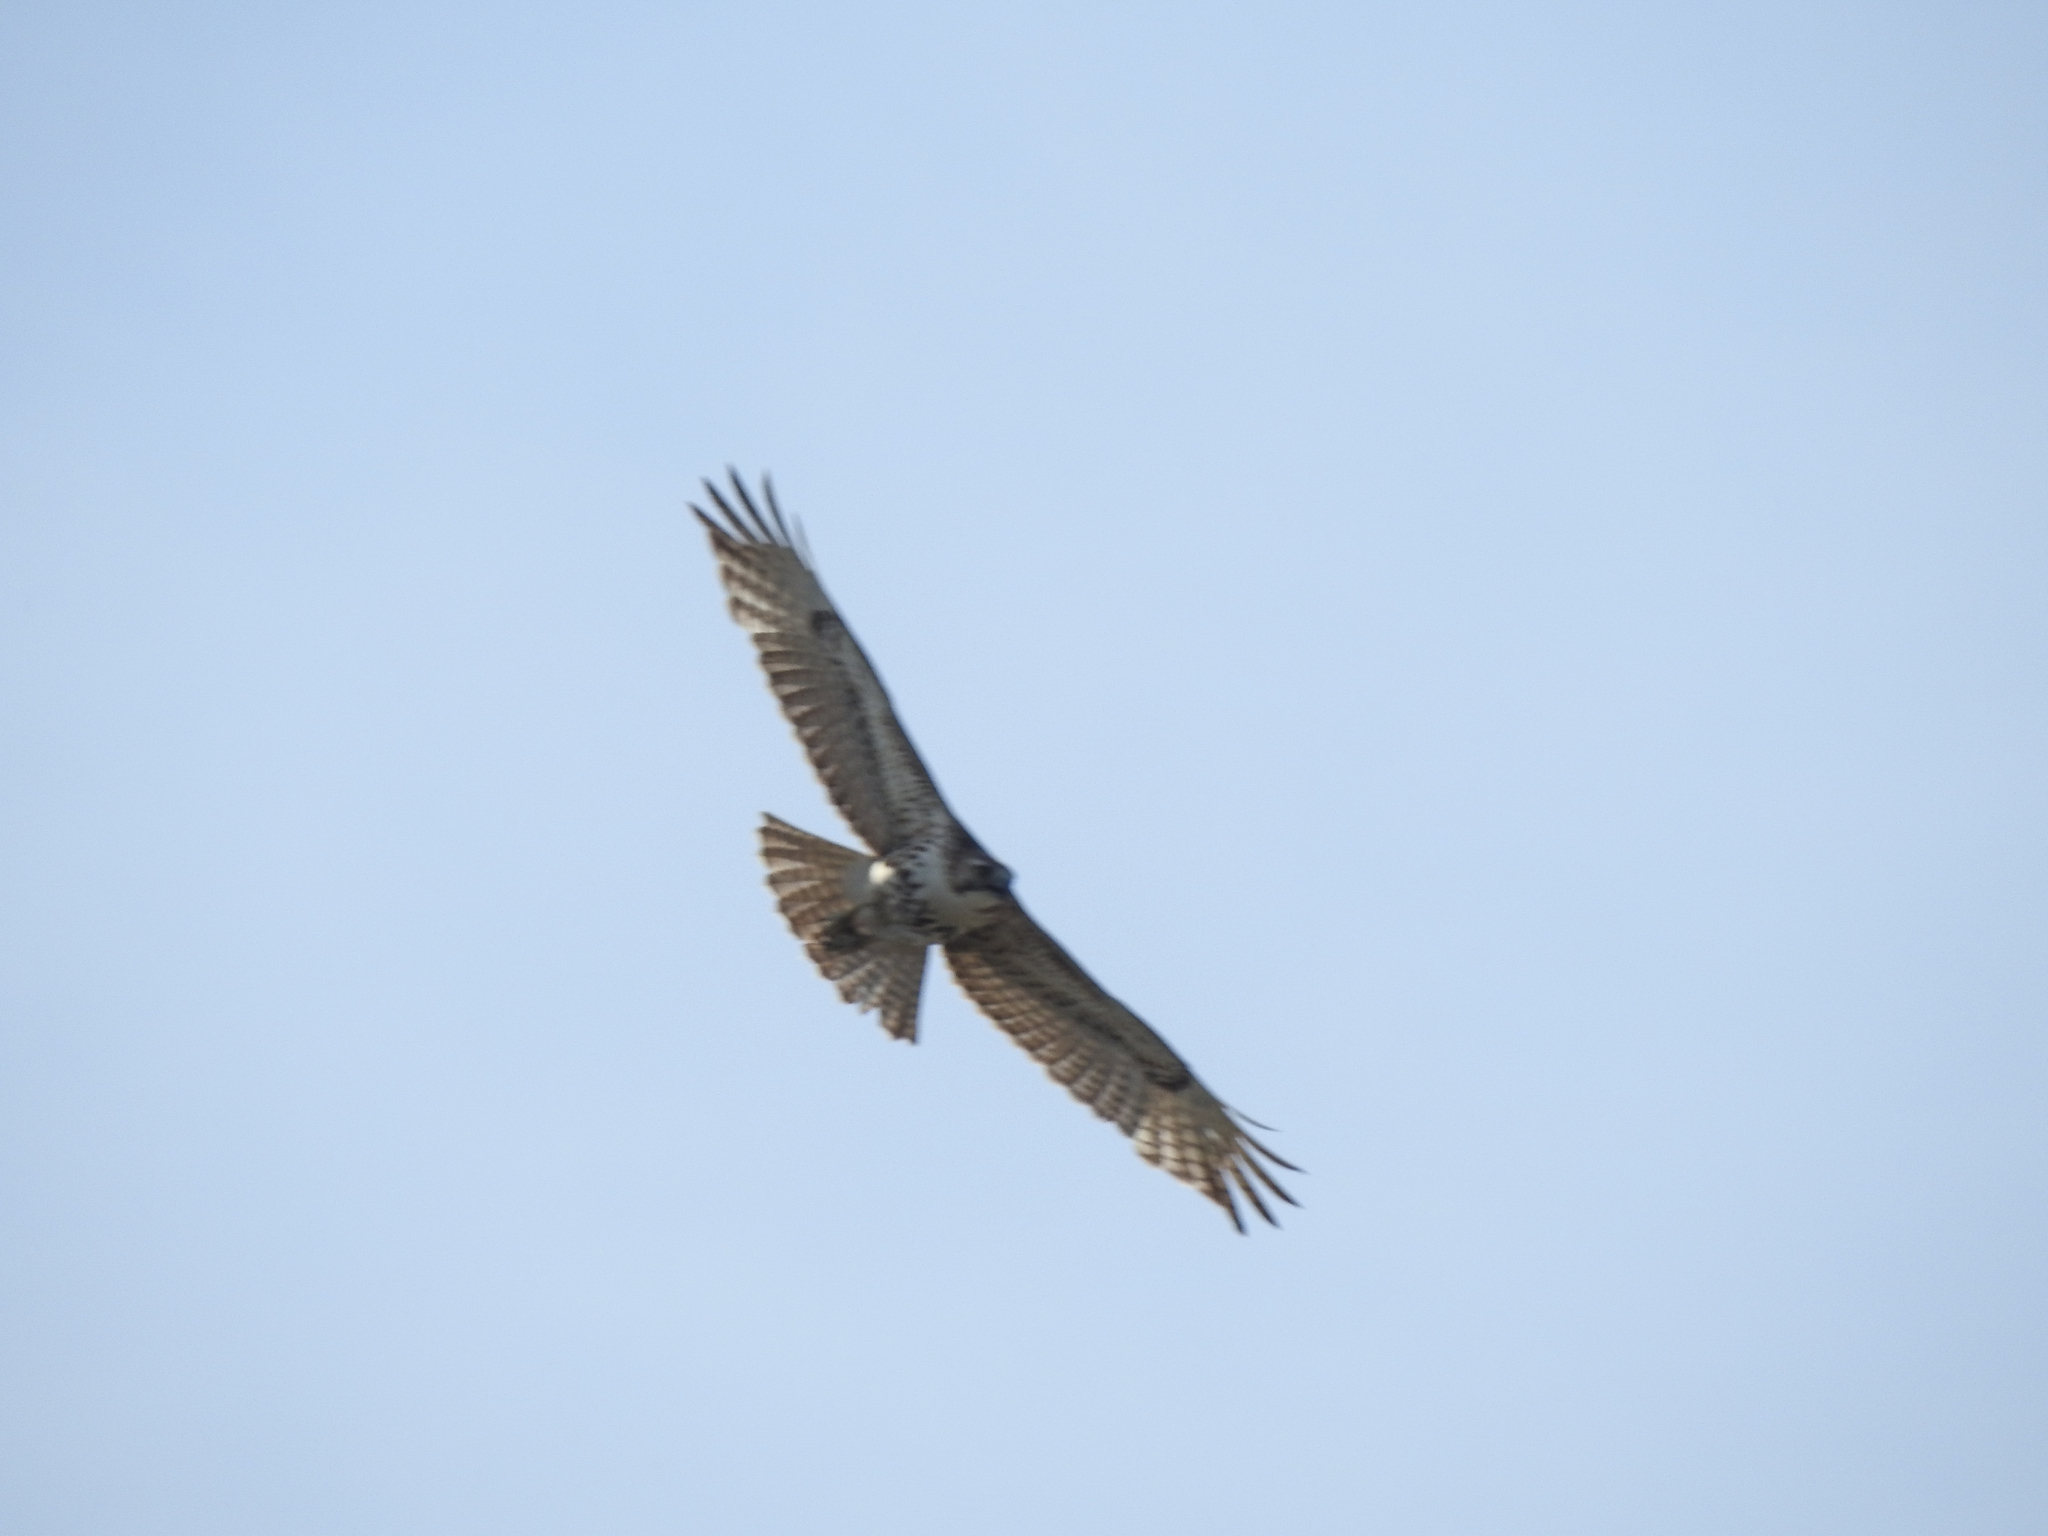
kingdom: Animalia
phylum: Chordata
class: Aves
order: Accipitriformes
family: Accipitridae
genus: Buteo
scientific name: Buteo jamaicensis
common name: Red-tailed hawk
